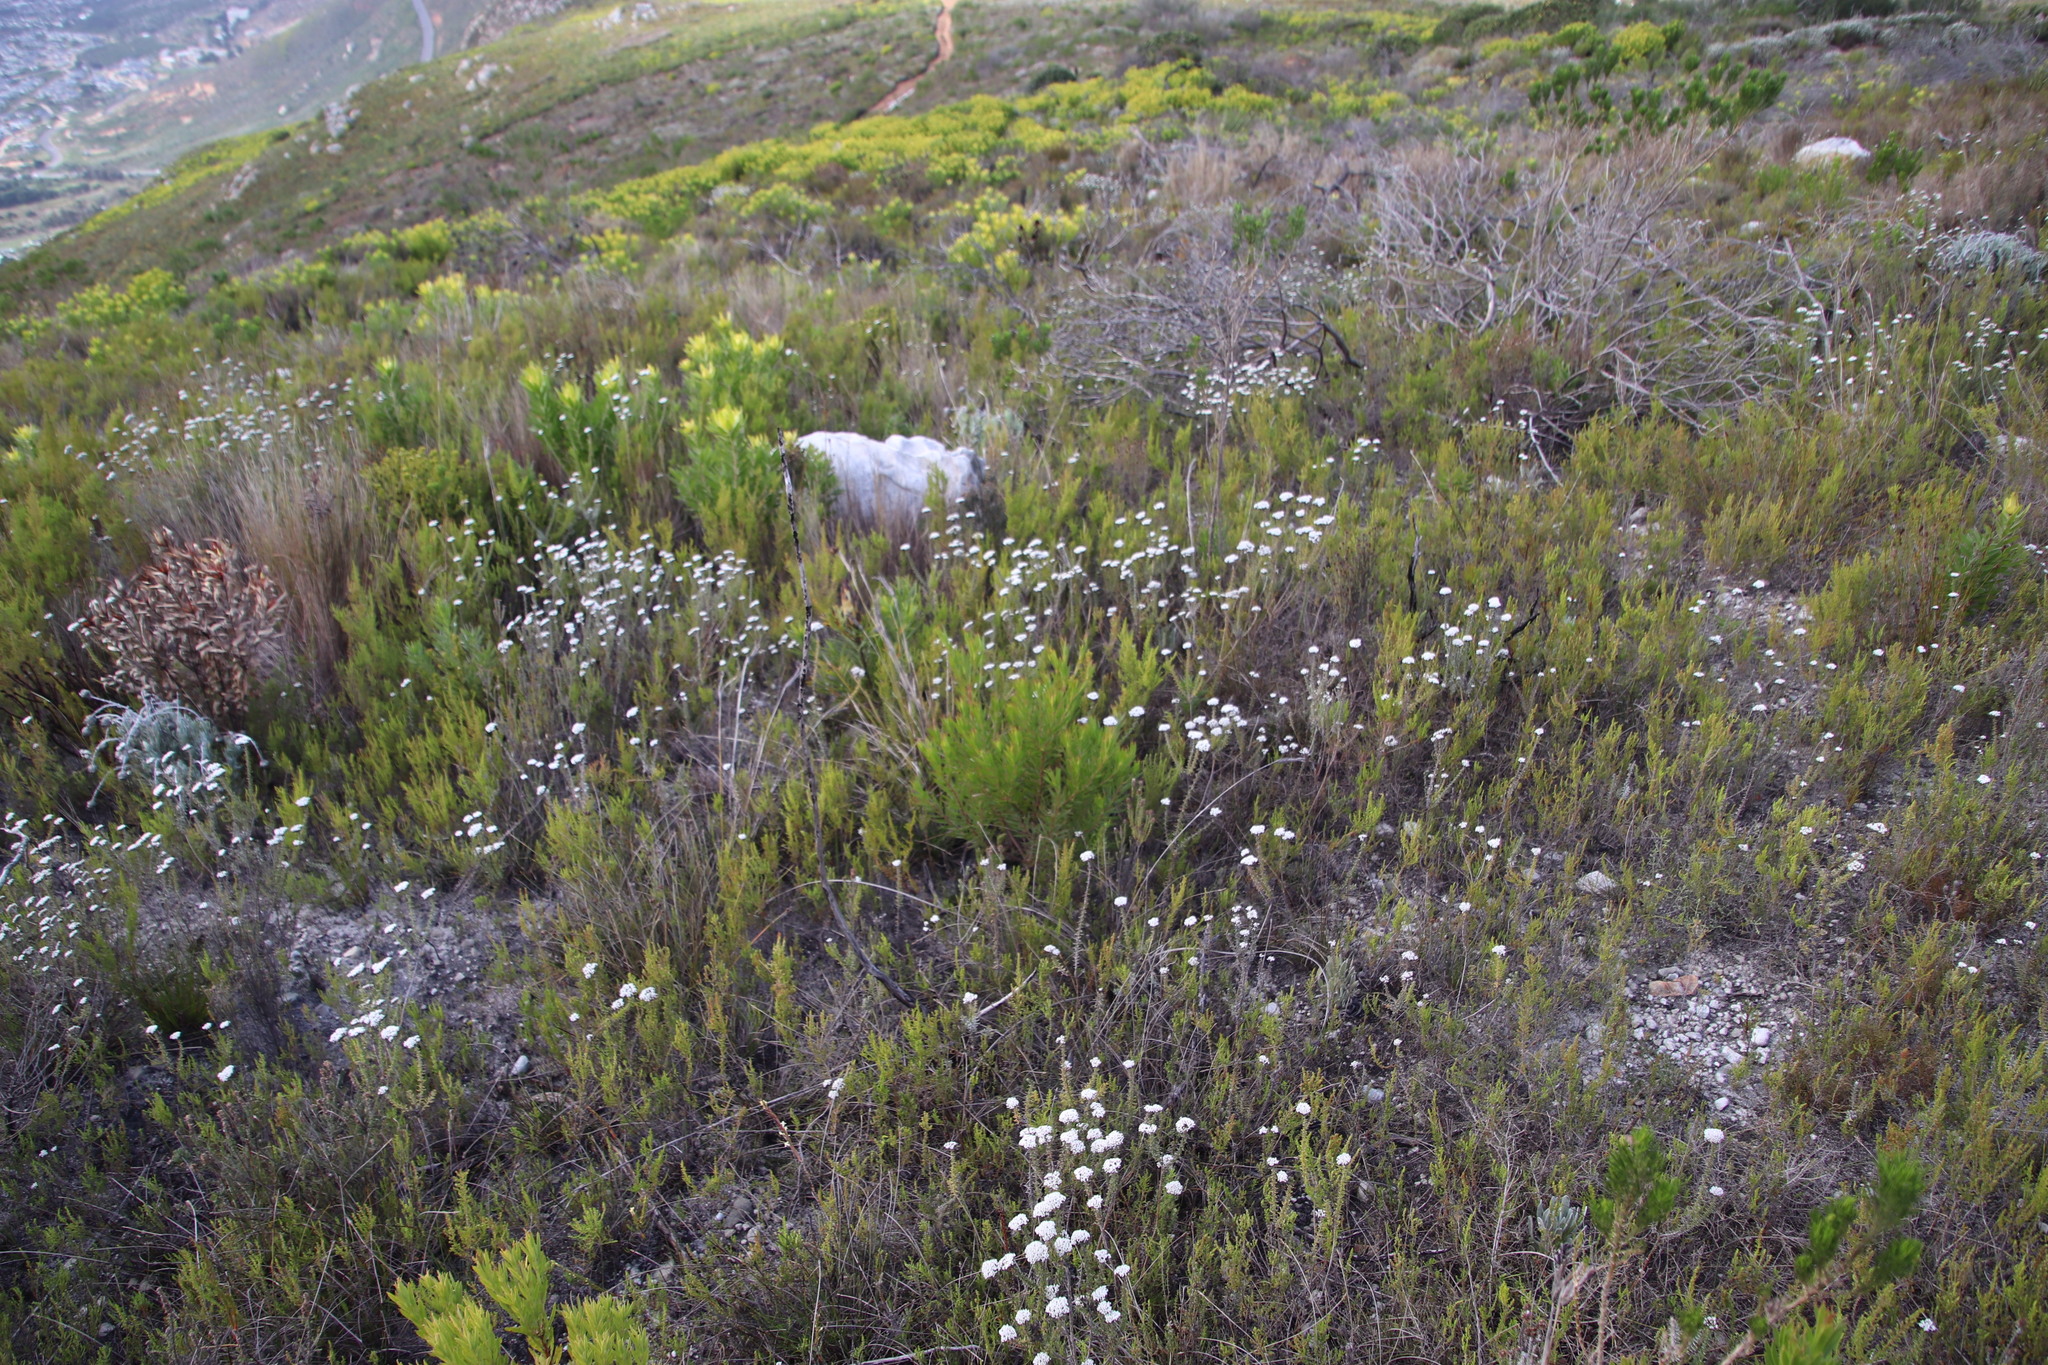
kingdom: Plantae
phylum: Tracheophyta
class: Magnoliopsida
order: Proteales
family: Proteaceae
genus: Leucadendron
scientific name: Leucadendron xanthoconus
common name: Sickle-leaf conebush
